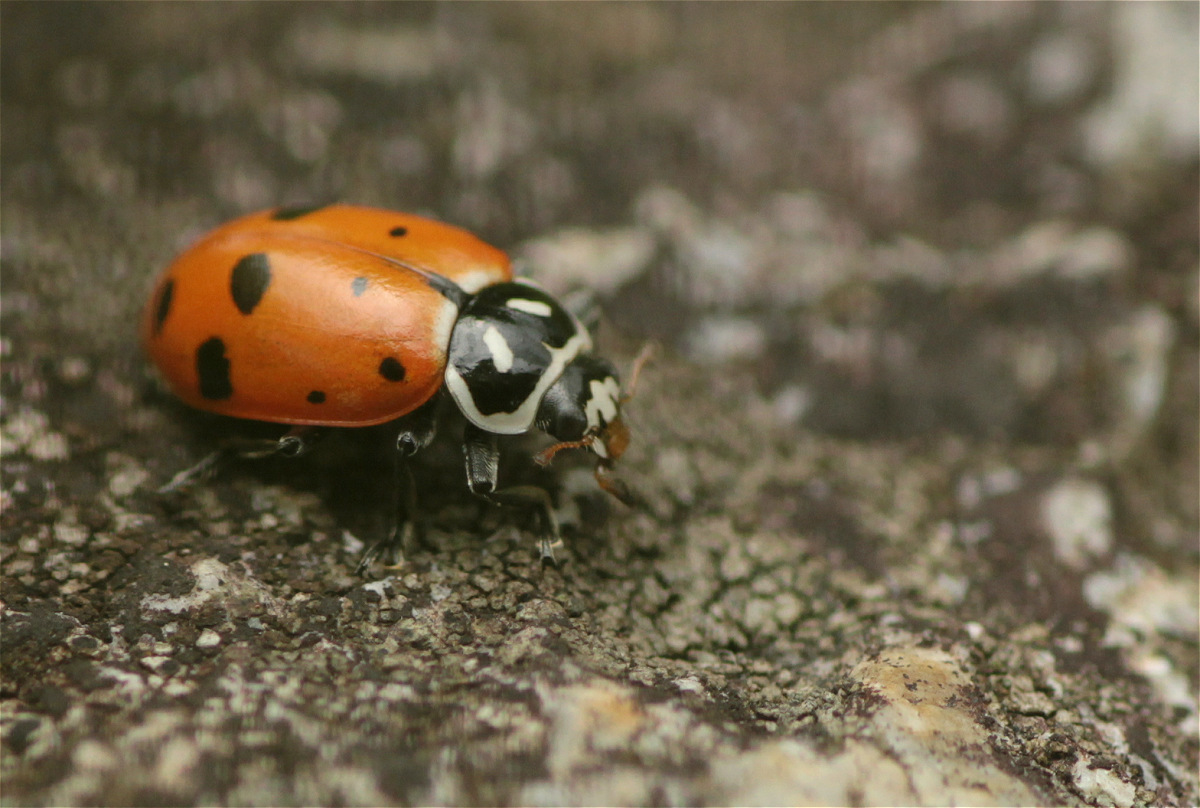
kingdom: Animalia
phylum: Arthropoda
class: Insecta
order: Coleoptera
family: Coccinellidae
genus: Hippodamia
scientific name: Hippodamia convergens
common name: Convergent lady beetle
